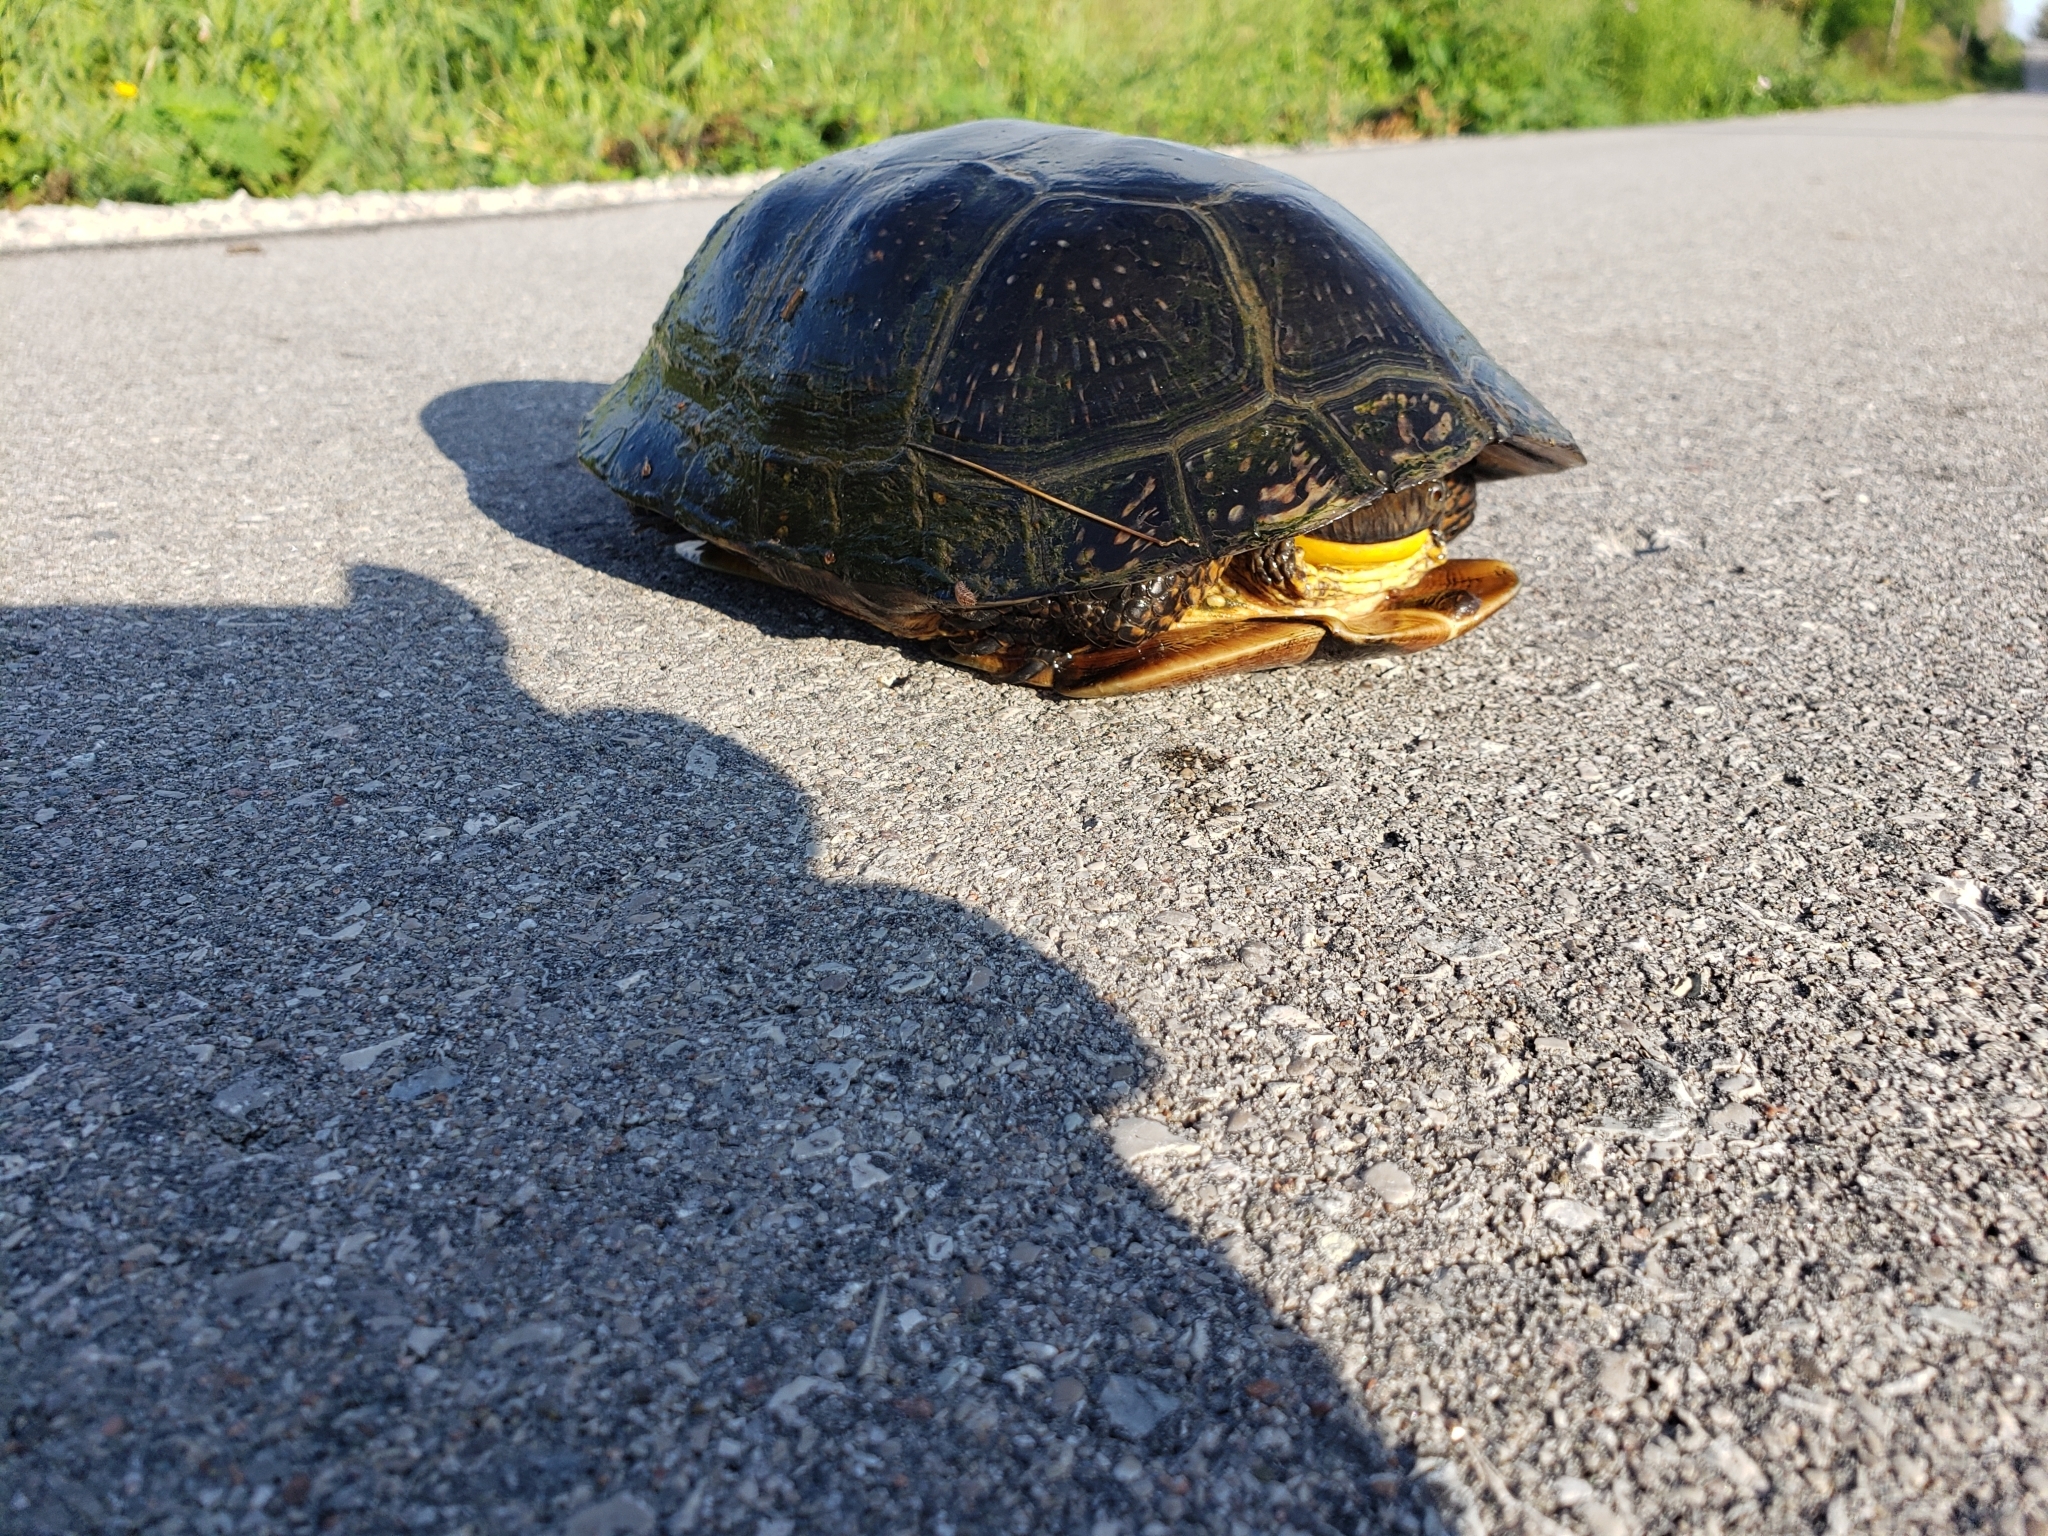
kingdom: Animalia
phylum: Chordata
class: Testudines
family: Emydidae
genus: Emys
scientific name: Emys blandingii
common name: Blanding's turtle
